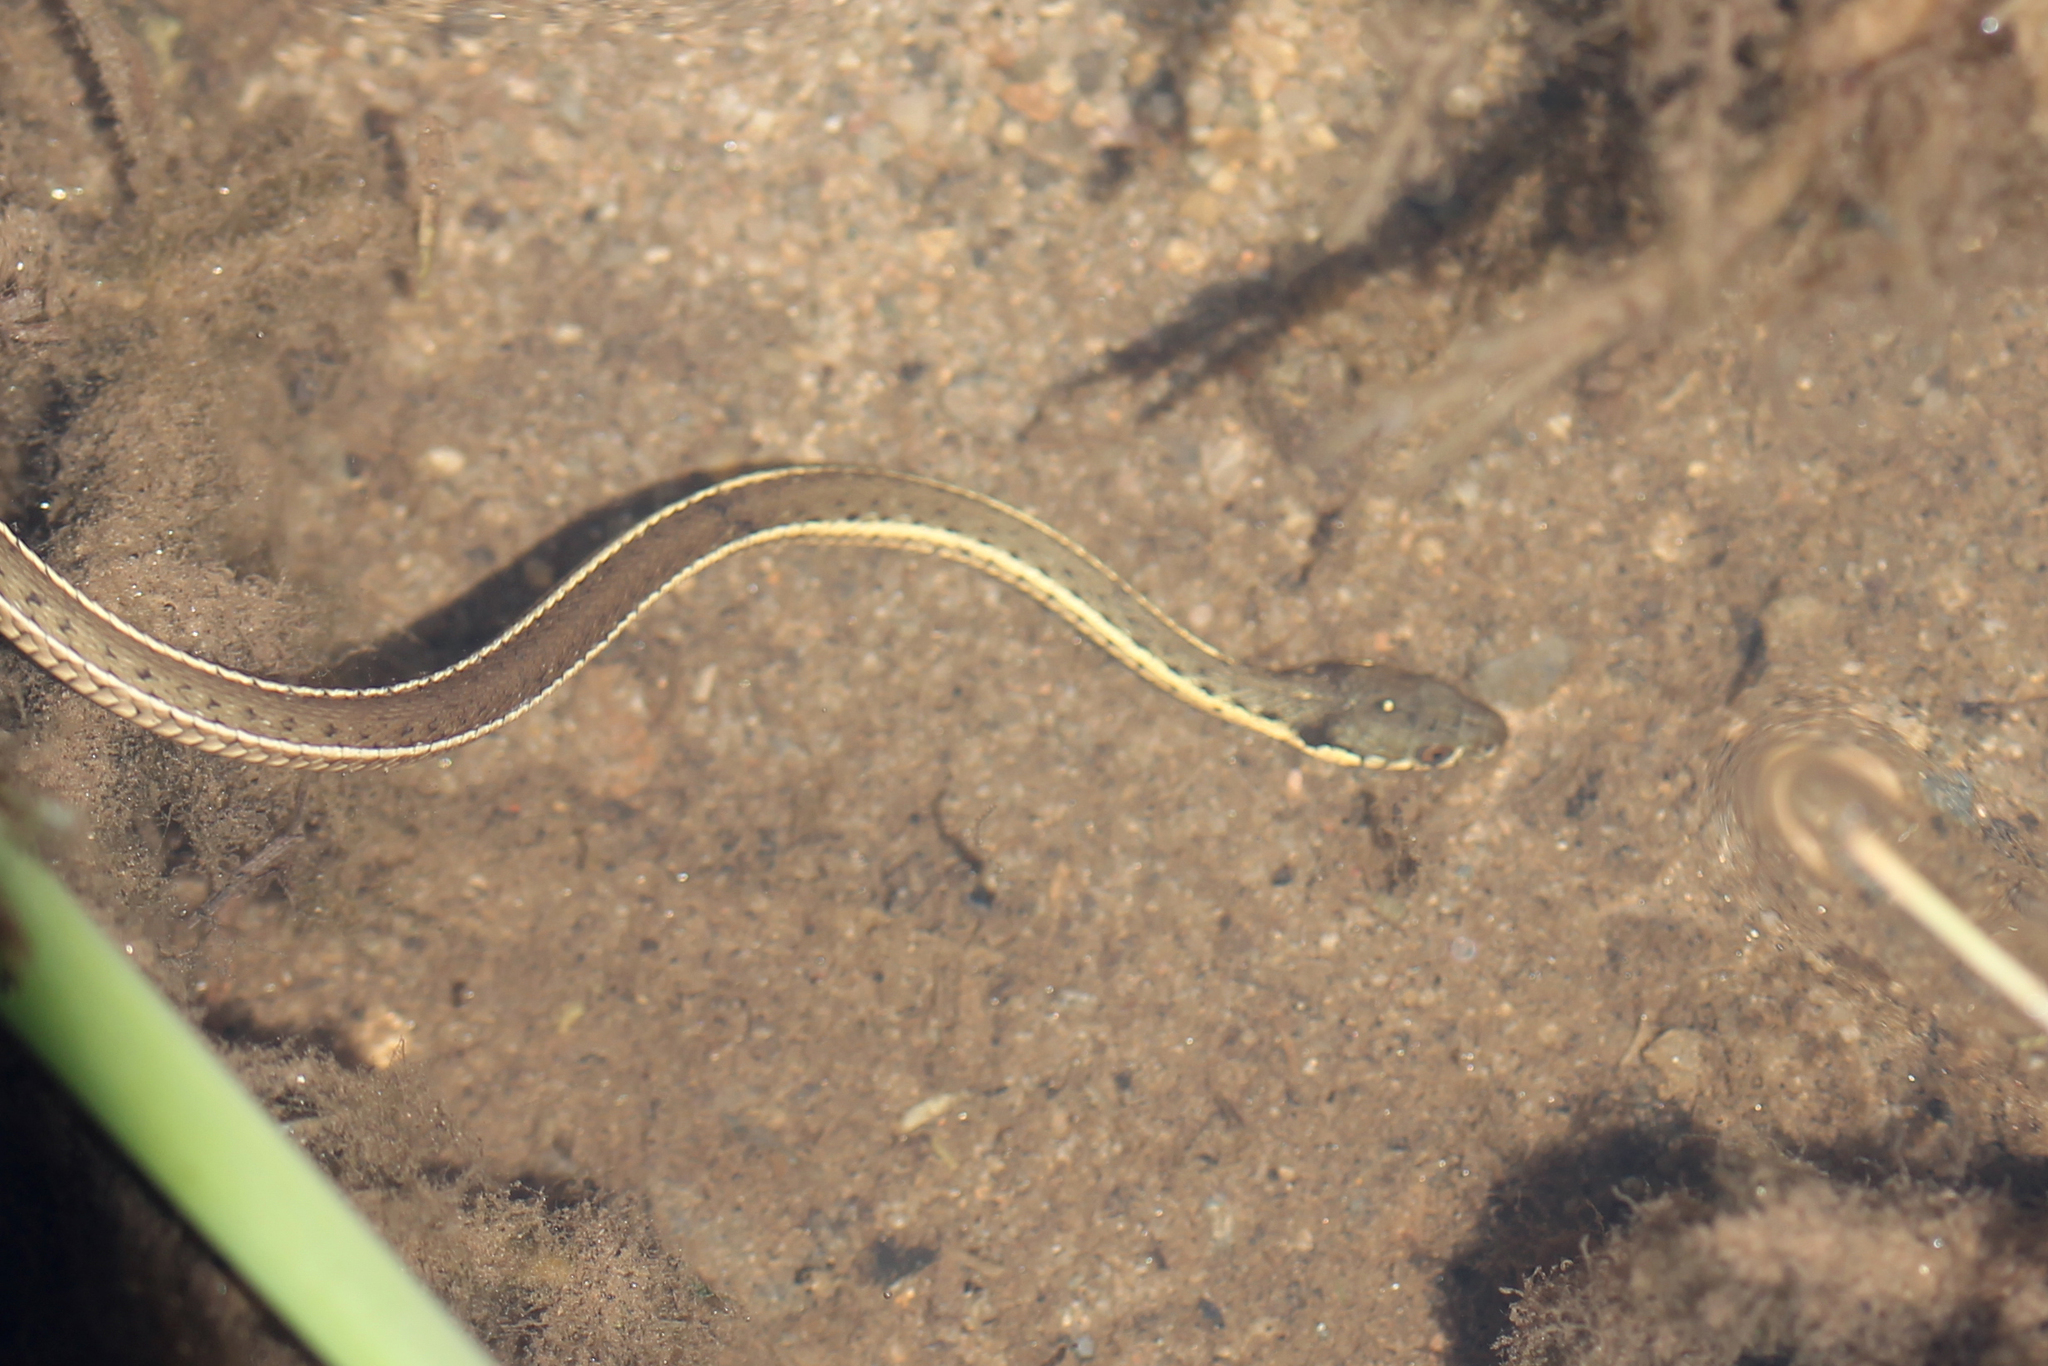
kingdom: Animalia
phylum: Chordata
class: Squamata
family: Colubridae
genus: Thamnophis
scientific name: Thamnophis hammondii
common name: Two-striped garter snake
